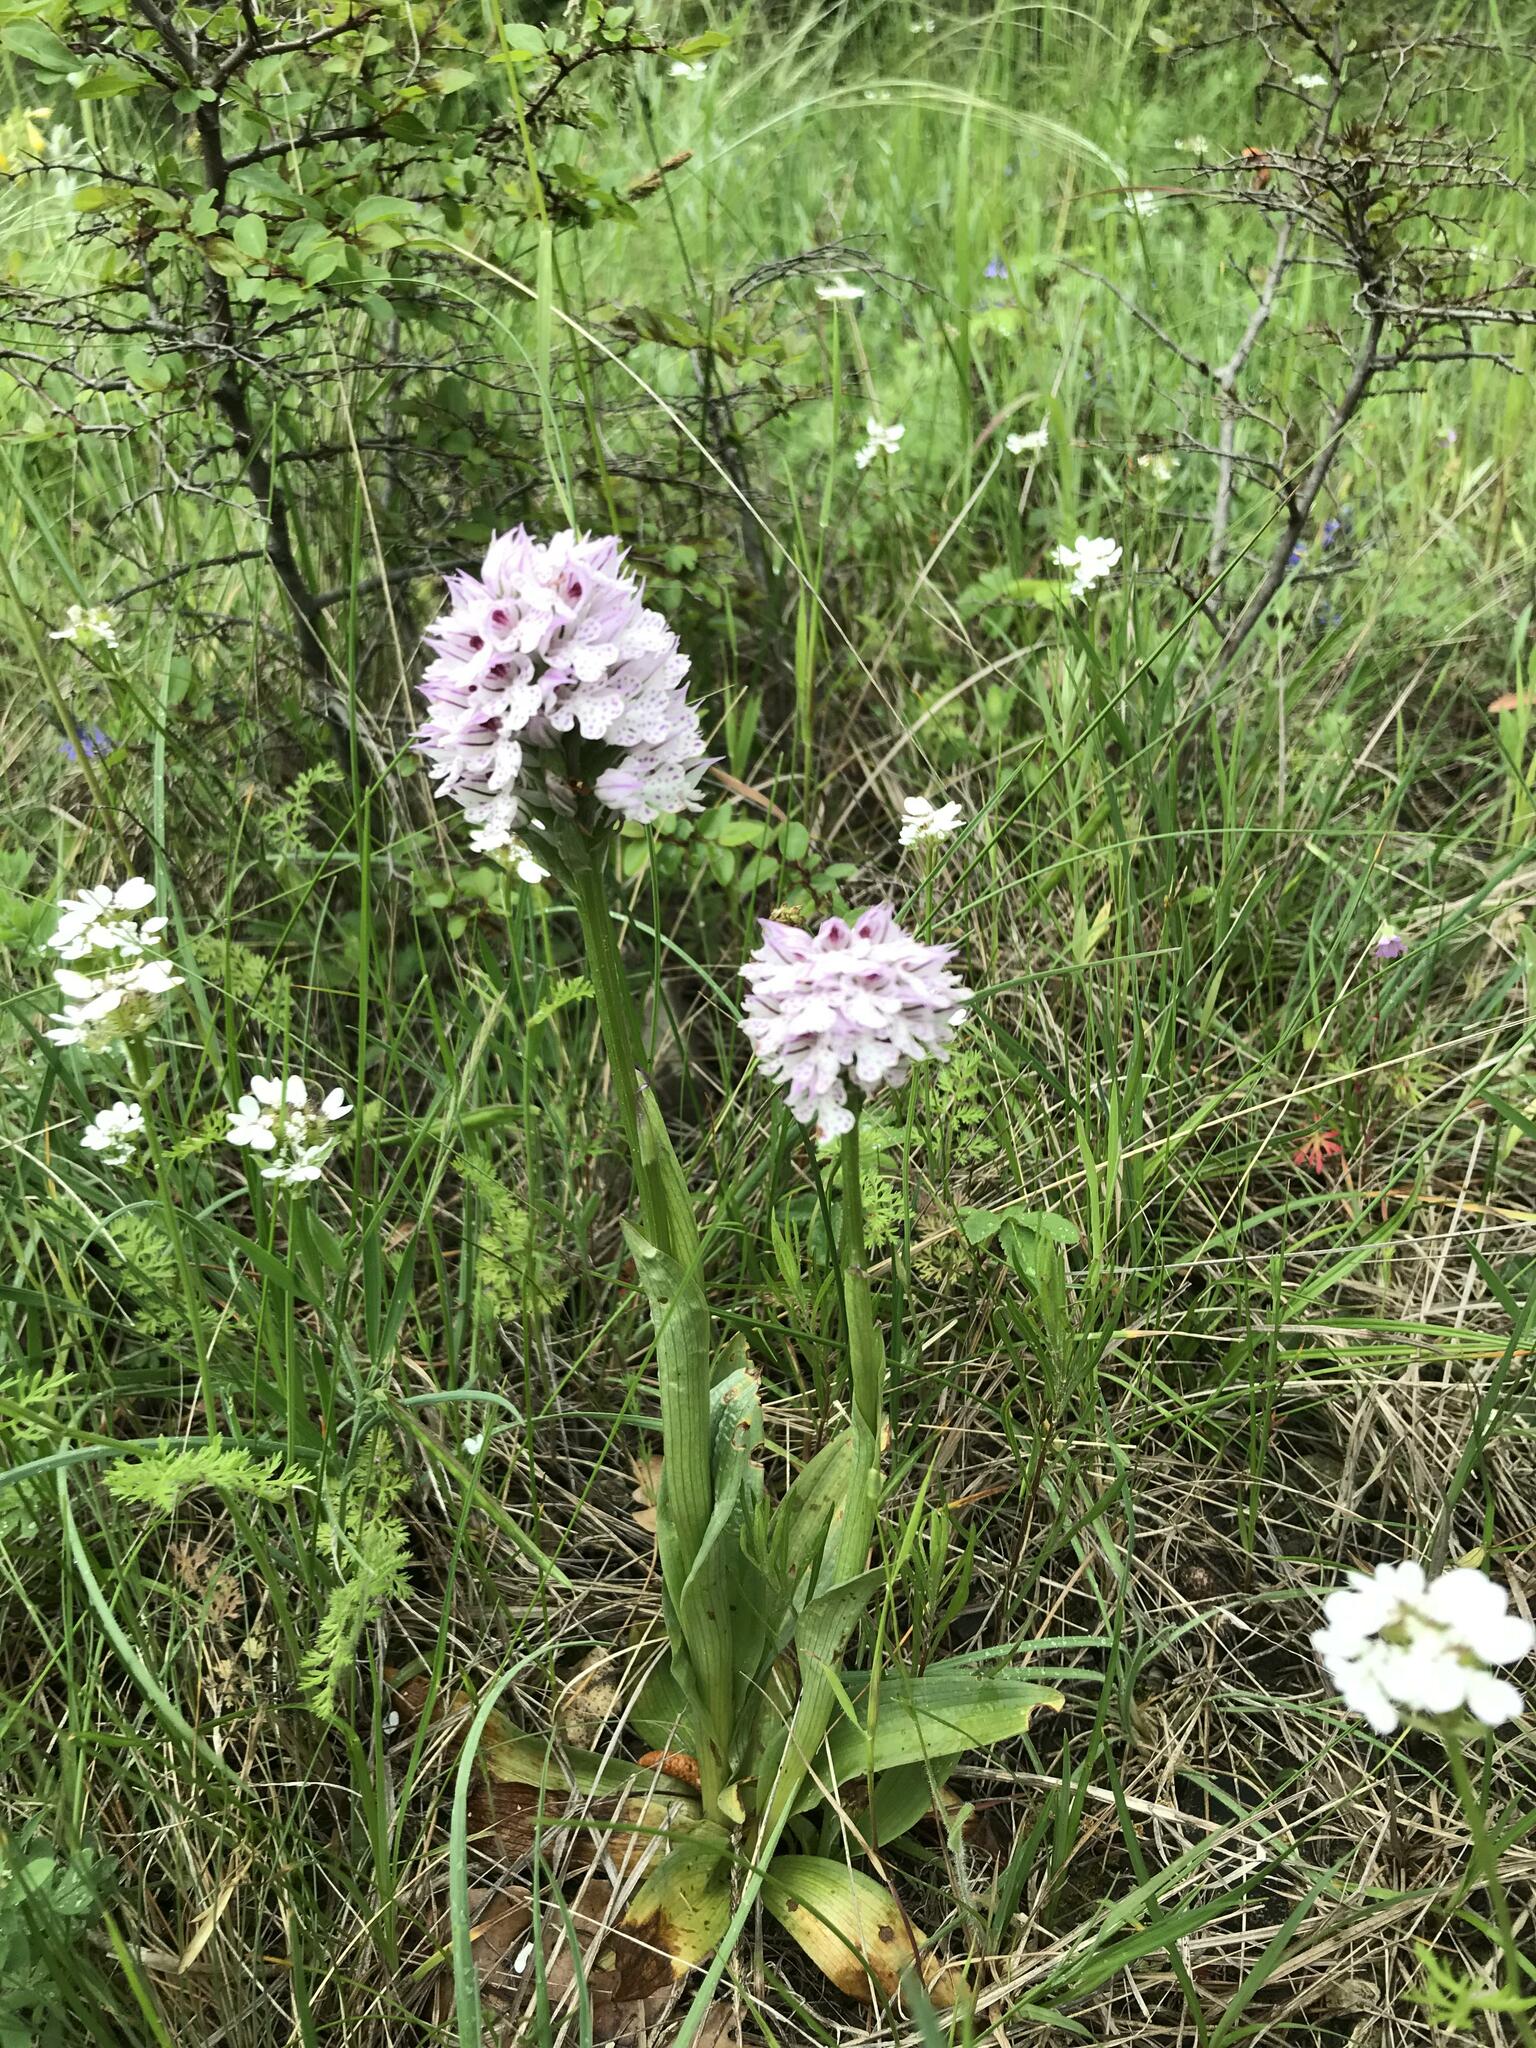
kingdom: Plantae
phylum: Tracheophyta
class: Liliopsida
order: Asparagales
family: Orchidaceae
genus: Neotinea
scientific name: Neotinea tridentata
